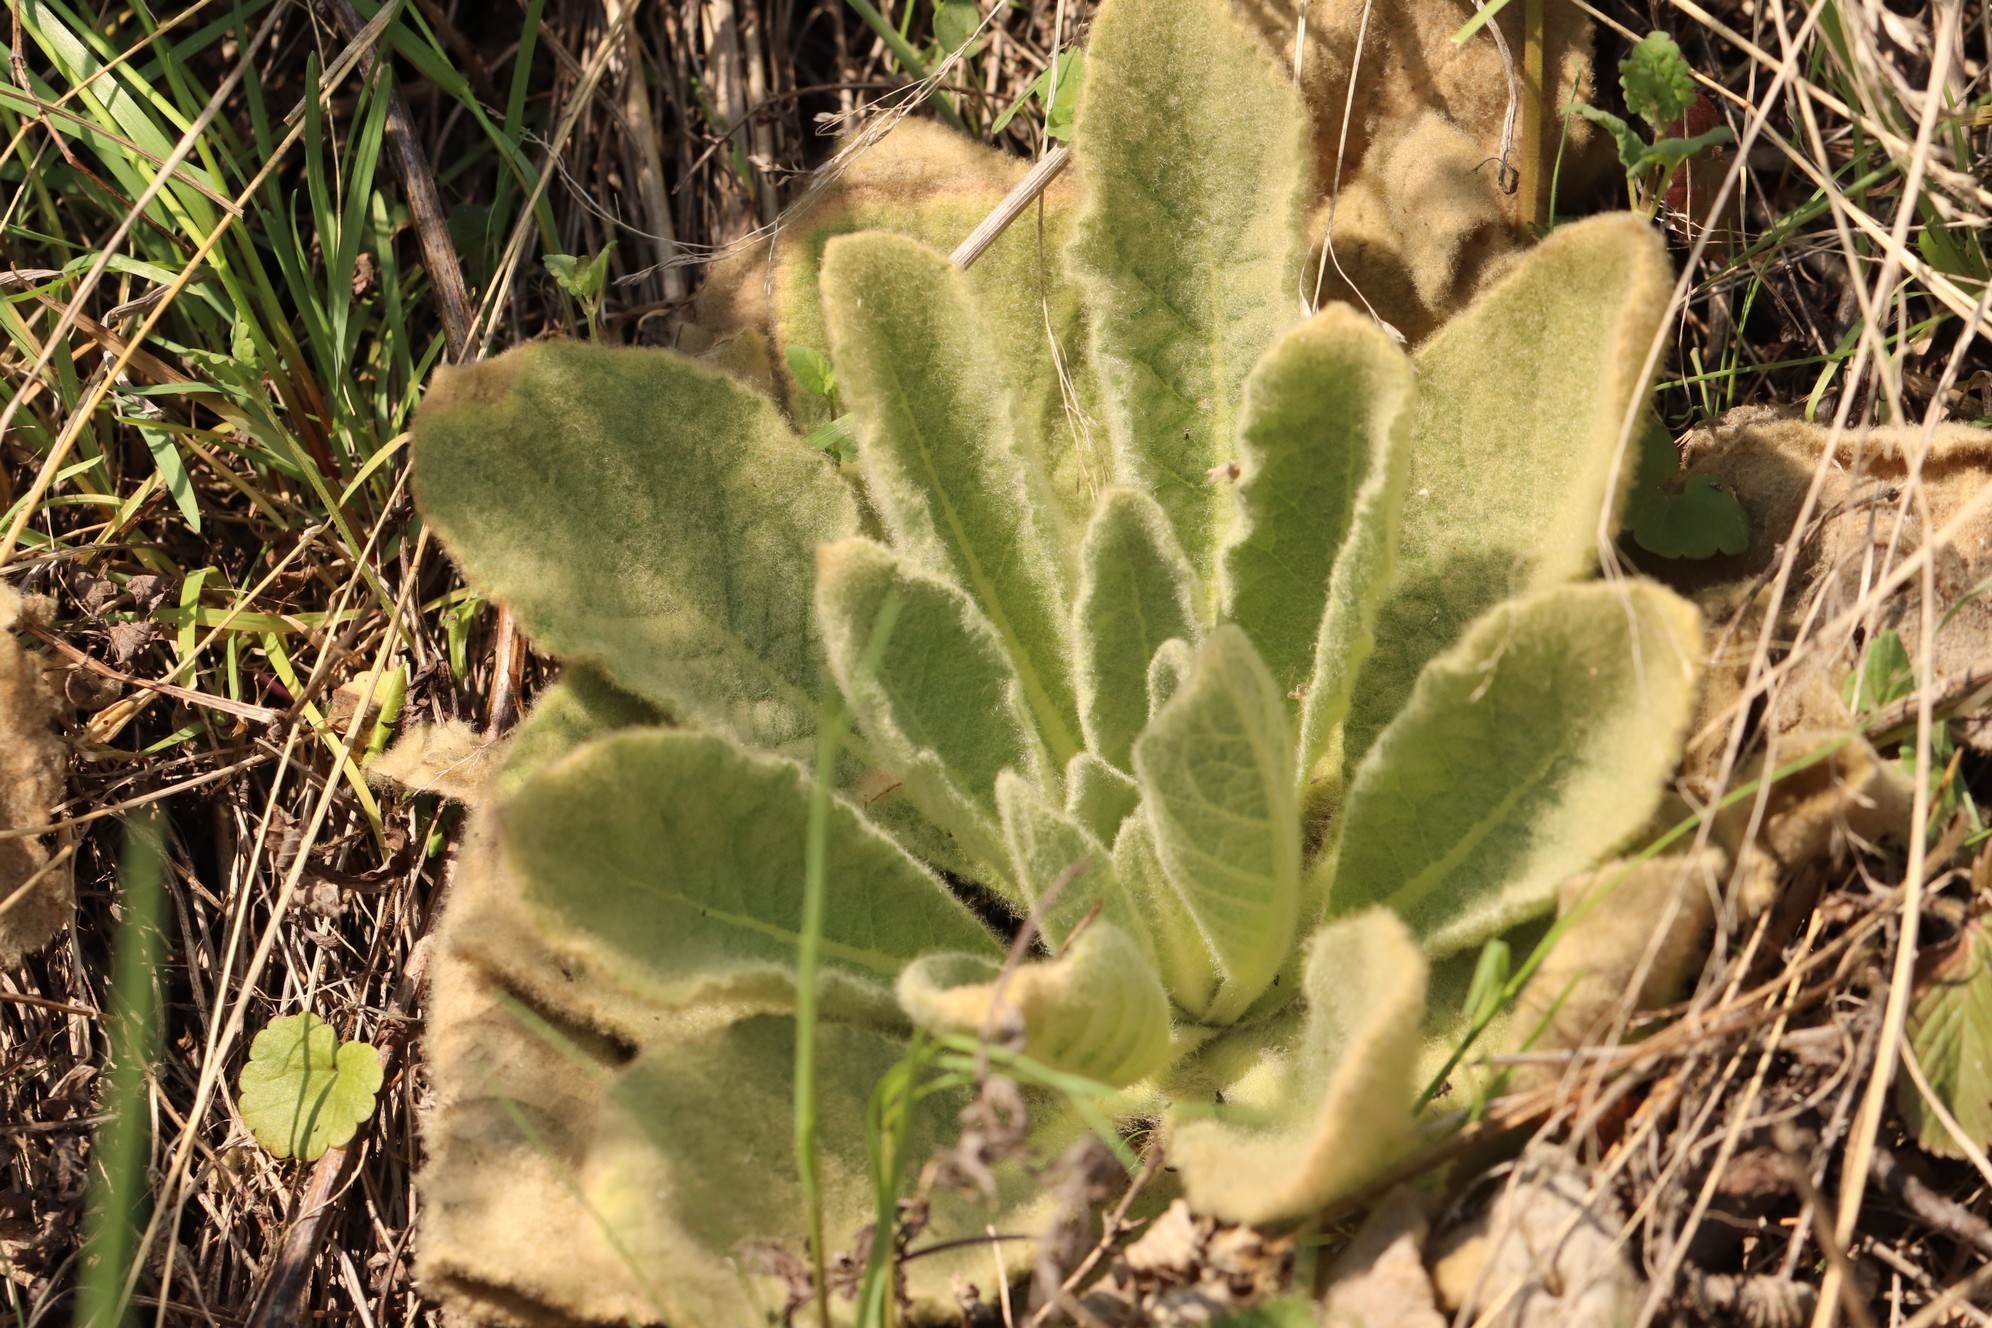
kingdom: Plantae
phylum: Tracheophyta
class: Magnoliopsida
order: Lamiales
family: Scrophulariaceae
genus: Verbascum
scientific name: Verbascum thapsus
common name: Common mullein
